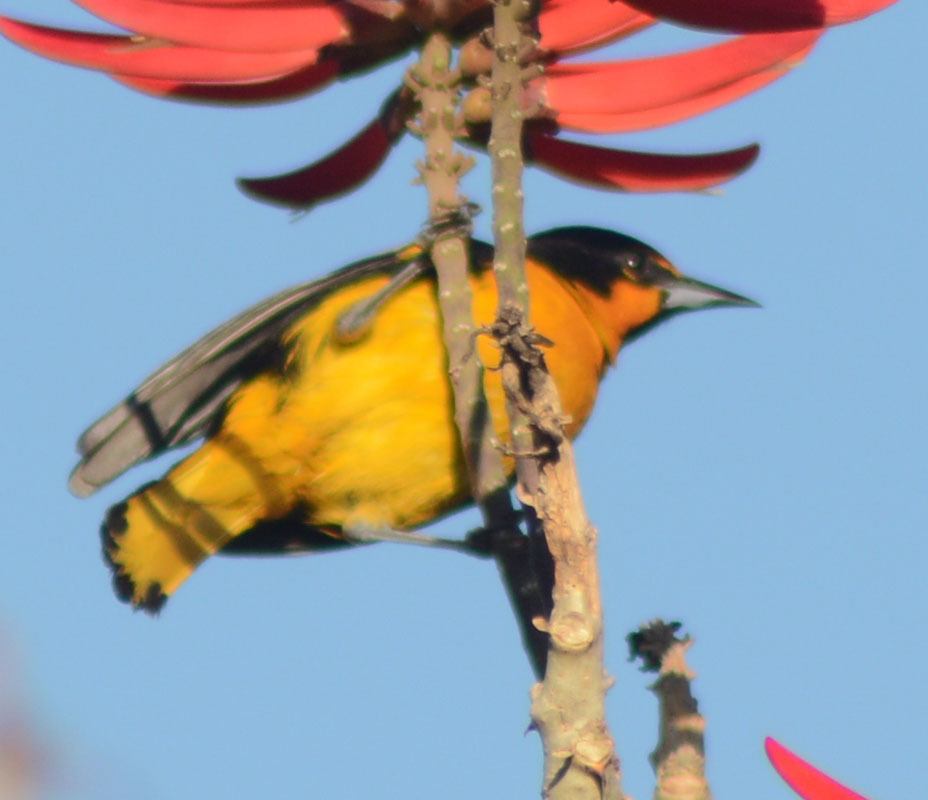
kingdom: Animalia
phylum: Chordata
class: Aves
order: Passeriformes
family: Icteridae
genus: Icterus
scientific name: Icterus abeillei
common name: Black-backed oriole
